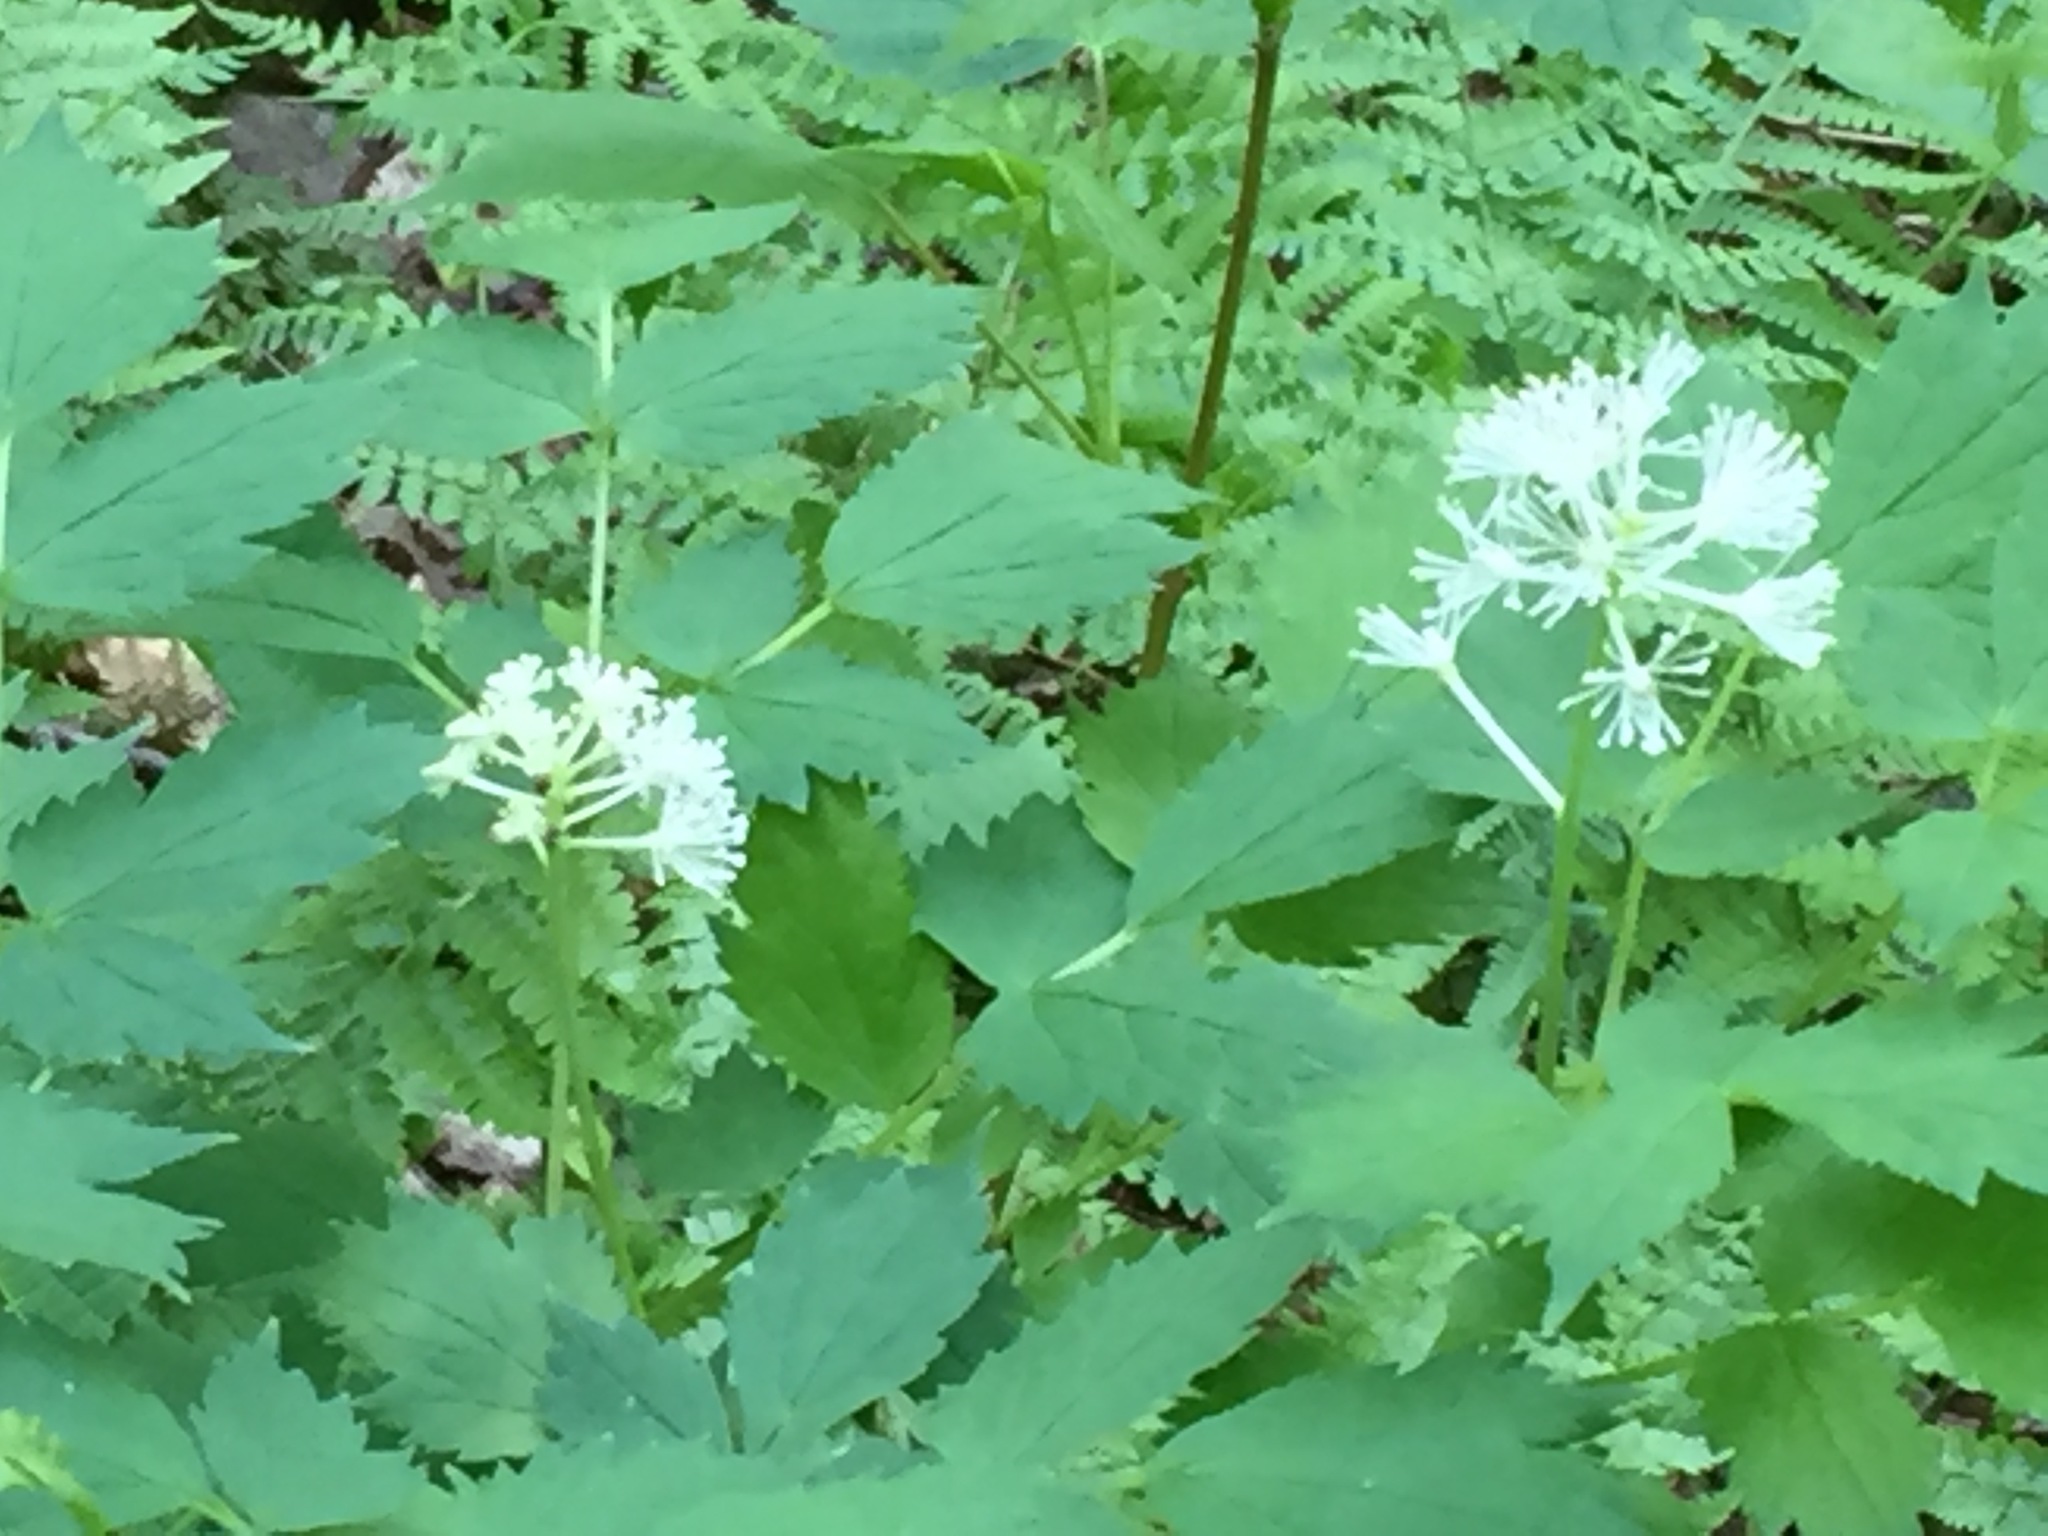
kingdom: Plantae
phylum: Tracheophyta
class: Magnoliopsida
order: Ranunculales
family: Ranunculaceae
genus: Actaea
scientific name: Actaea rubra
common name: Red baneberry
